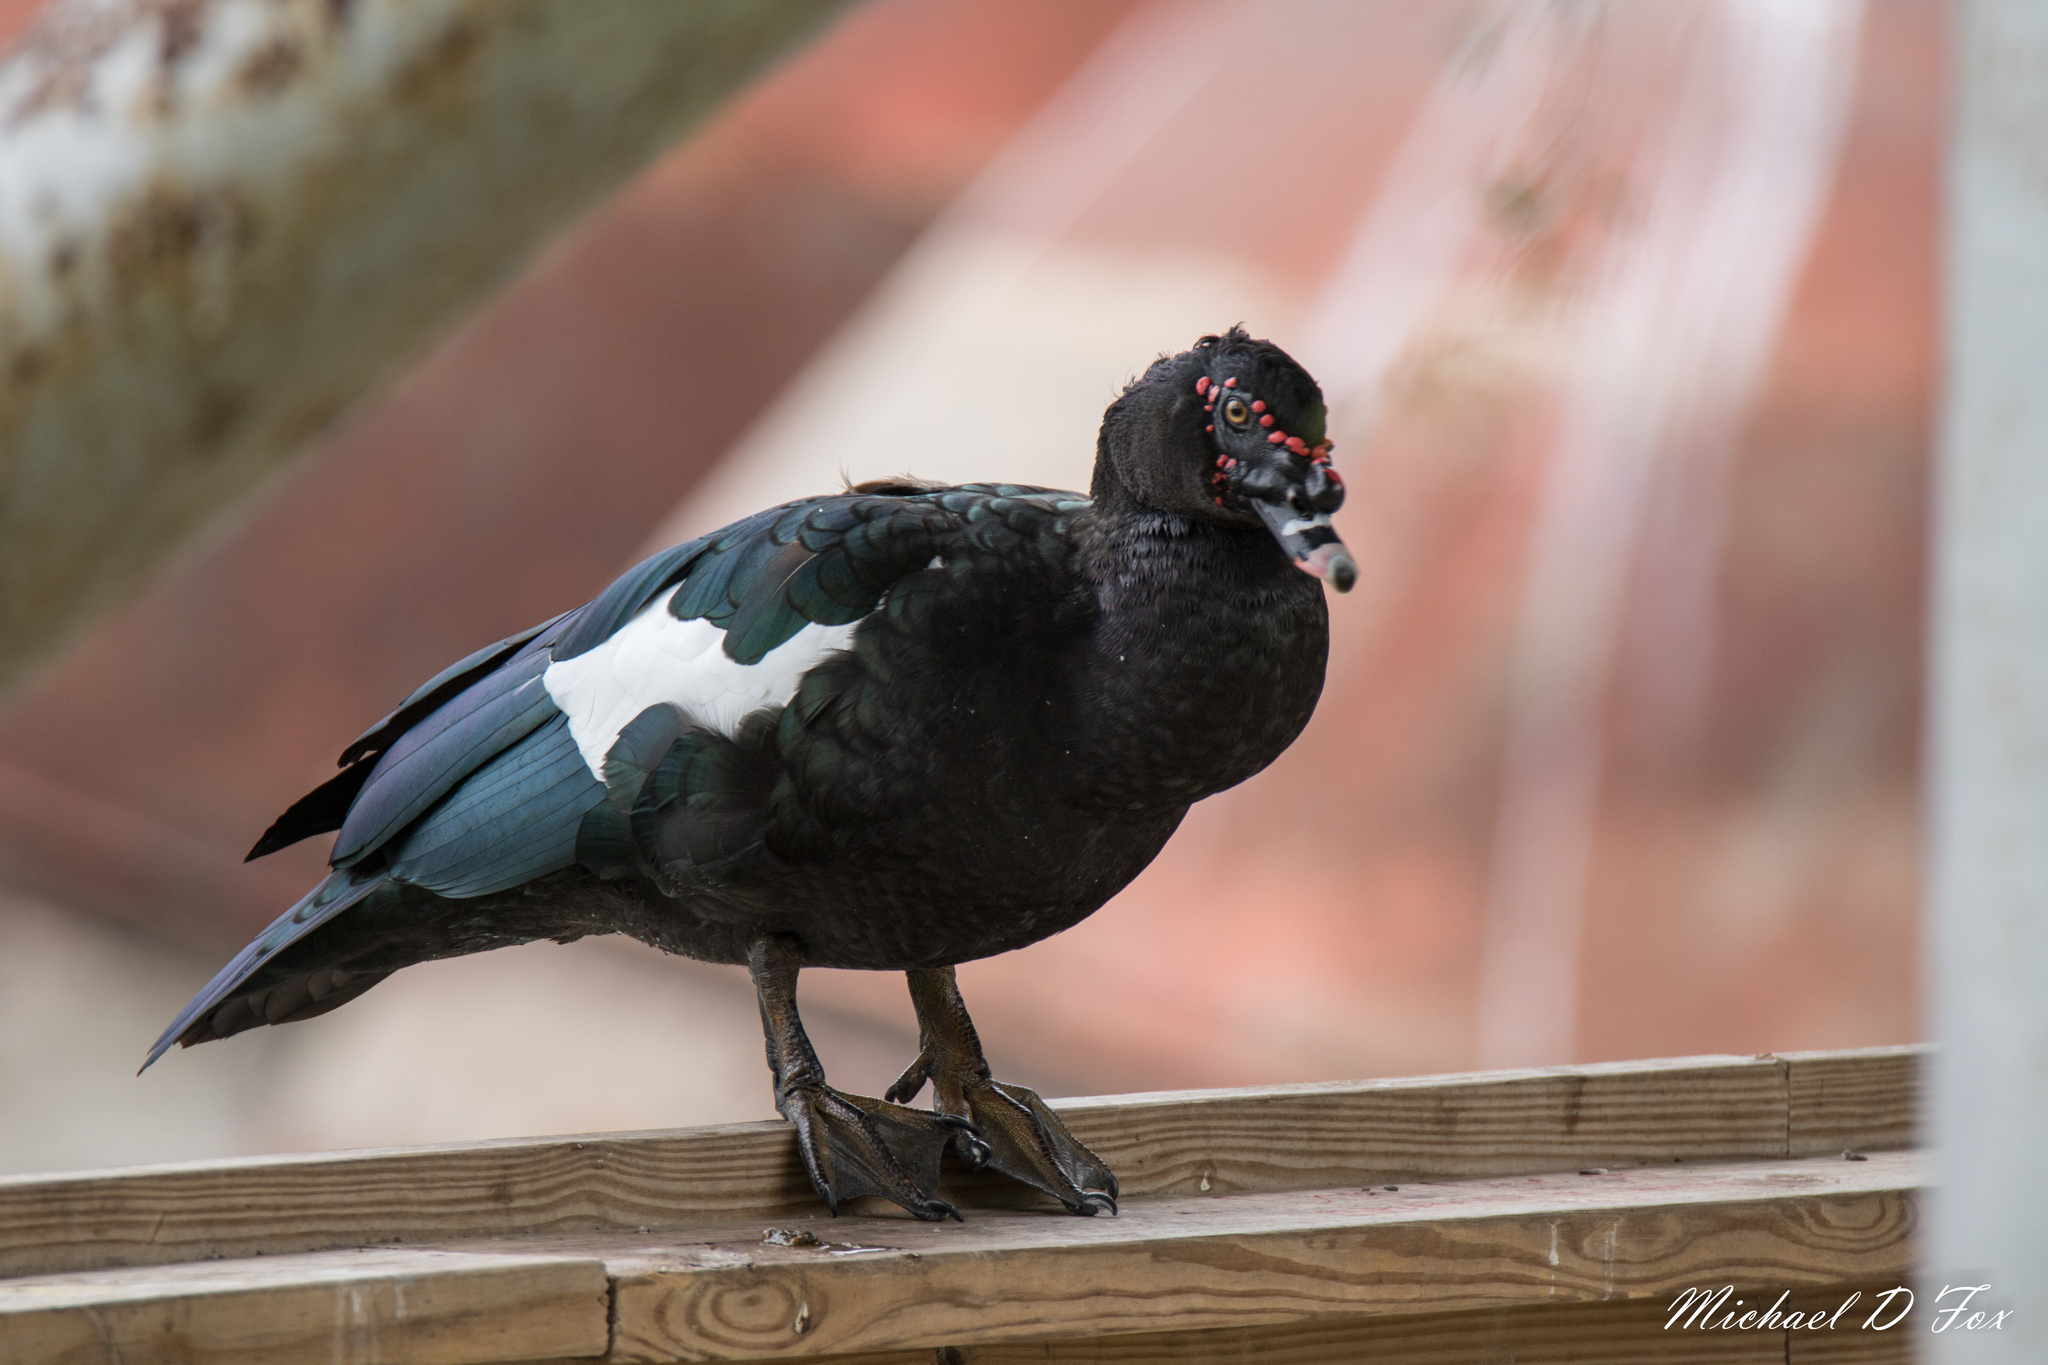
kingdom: Animalia
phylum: Chordata
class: Aves
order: Anseriformes
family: Anatidae
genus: Cairina
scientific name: Cairina moschata
